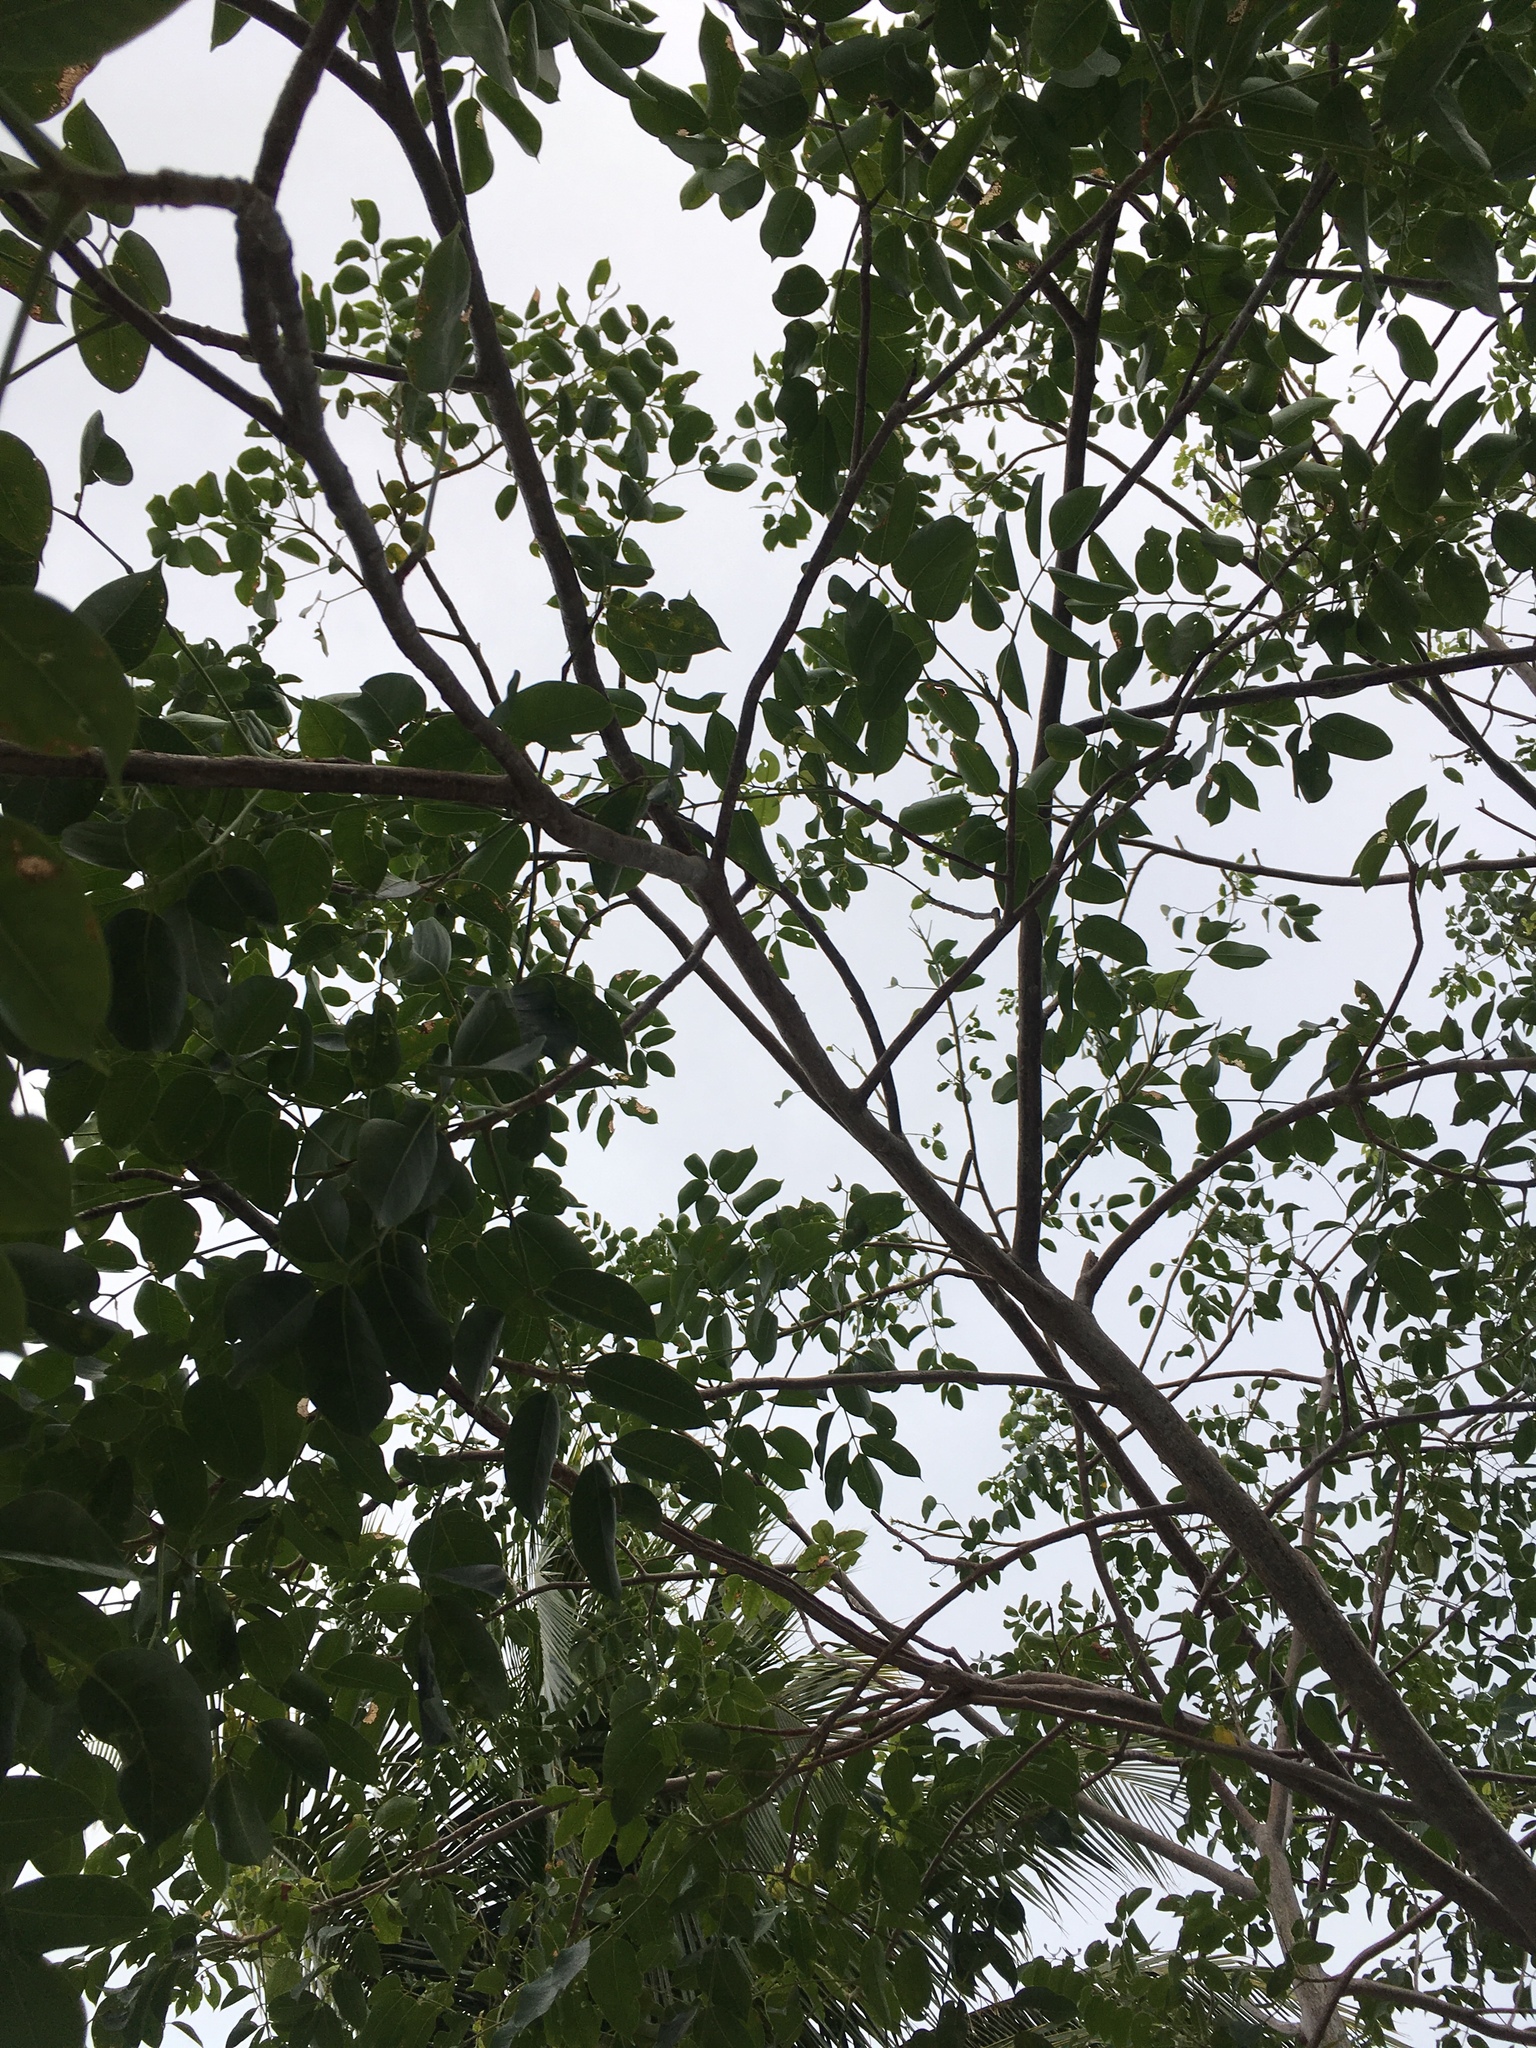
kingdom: Plantae
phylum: Tracheophyta
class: Magnoliopsida
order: Fabales
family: Fabaceae
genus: Piscidia
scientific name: Piscidia piscipula
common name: Florida fishpoison tree
